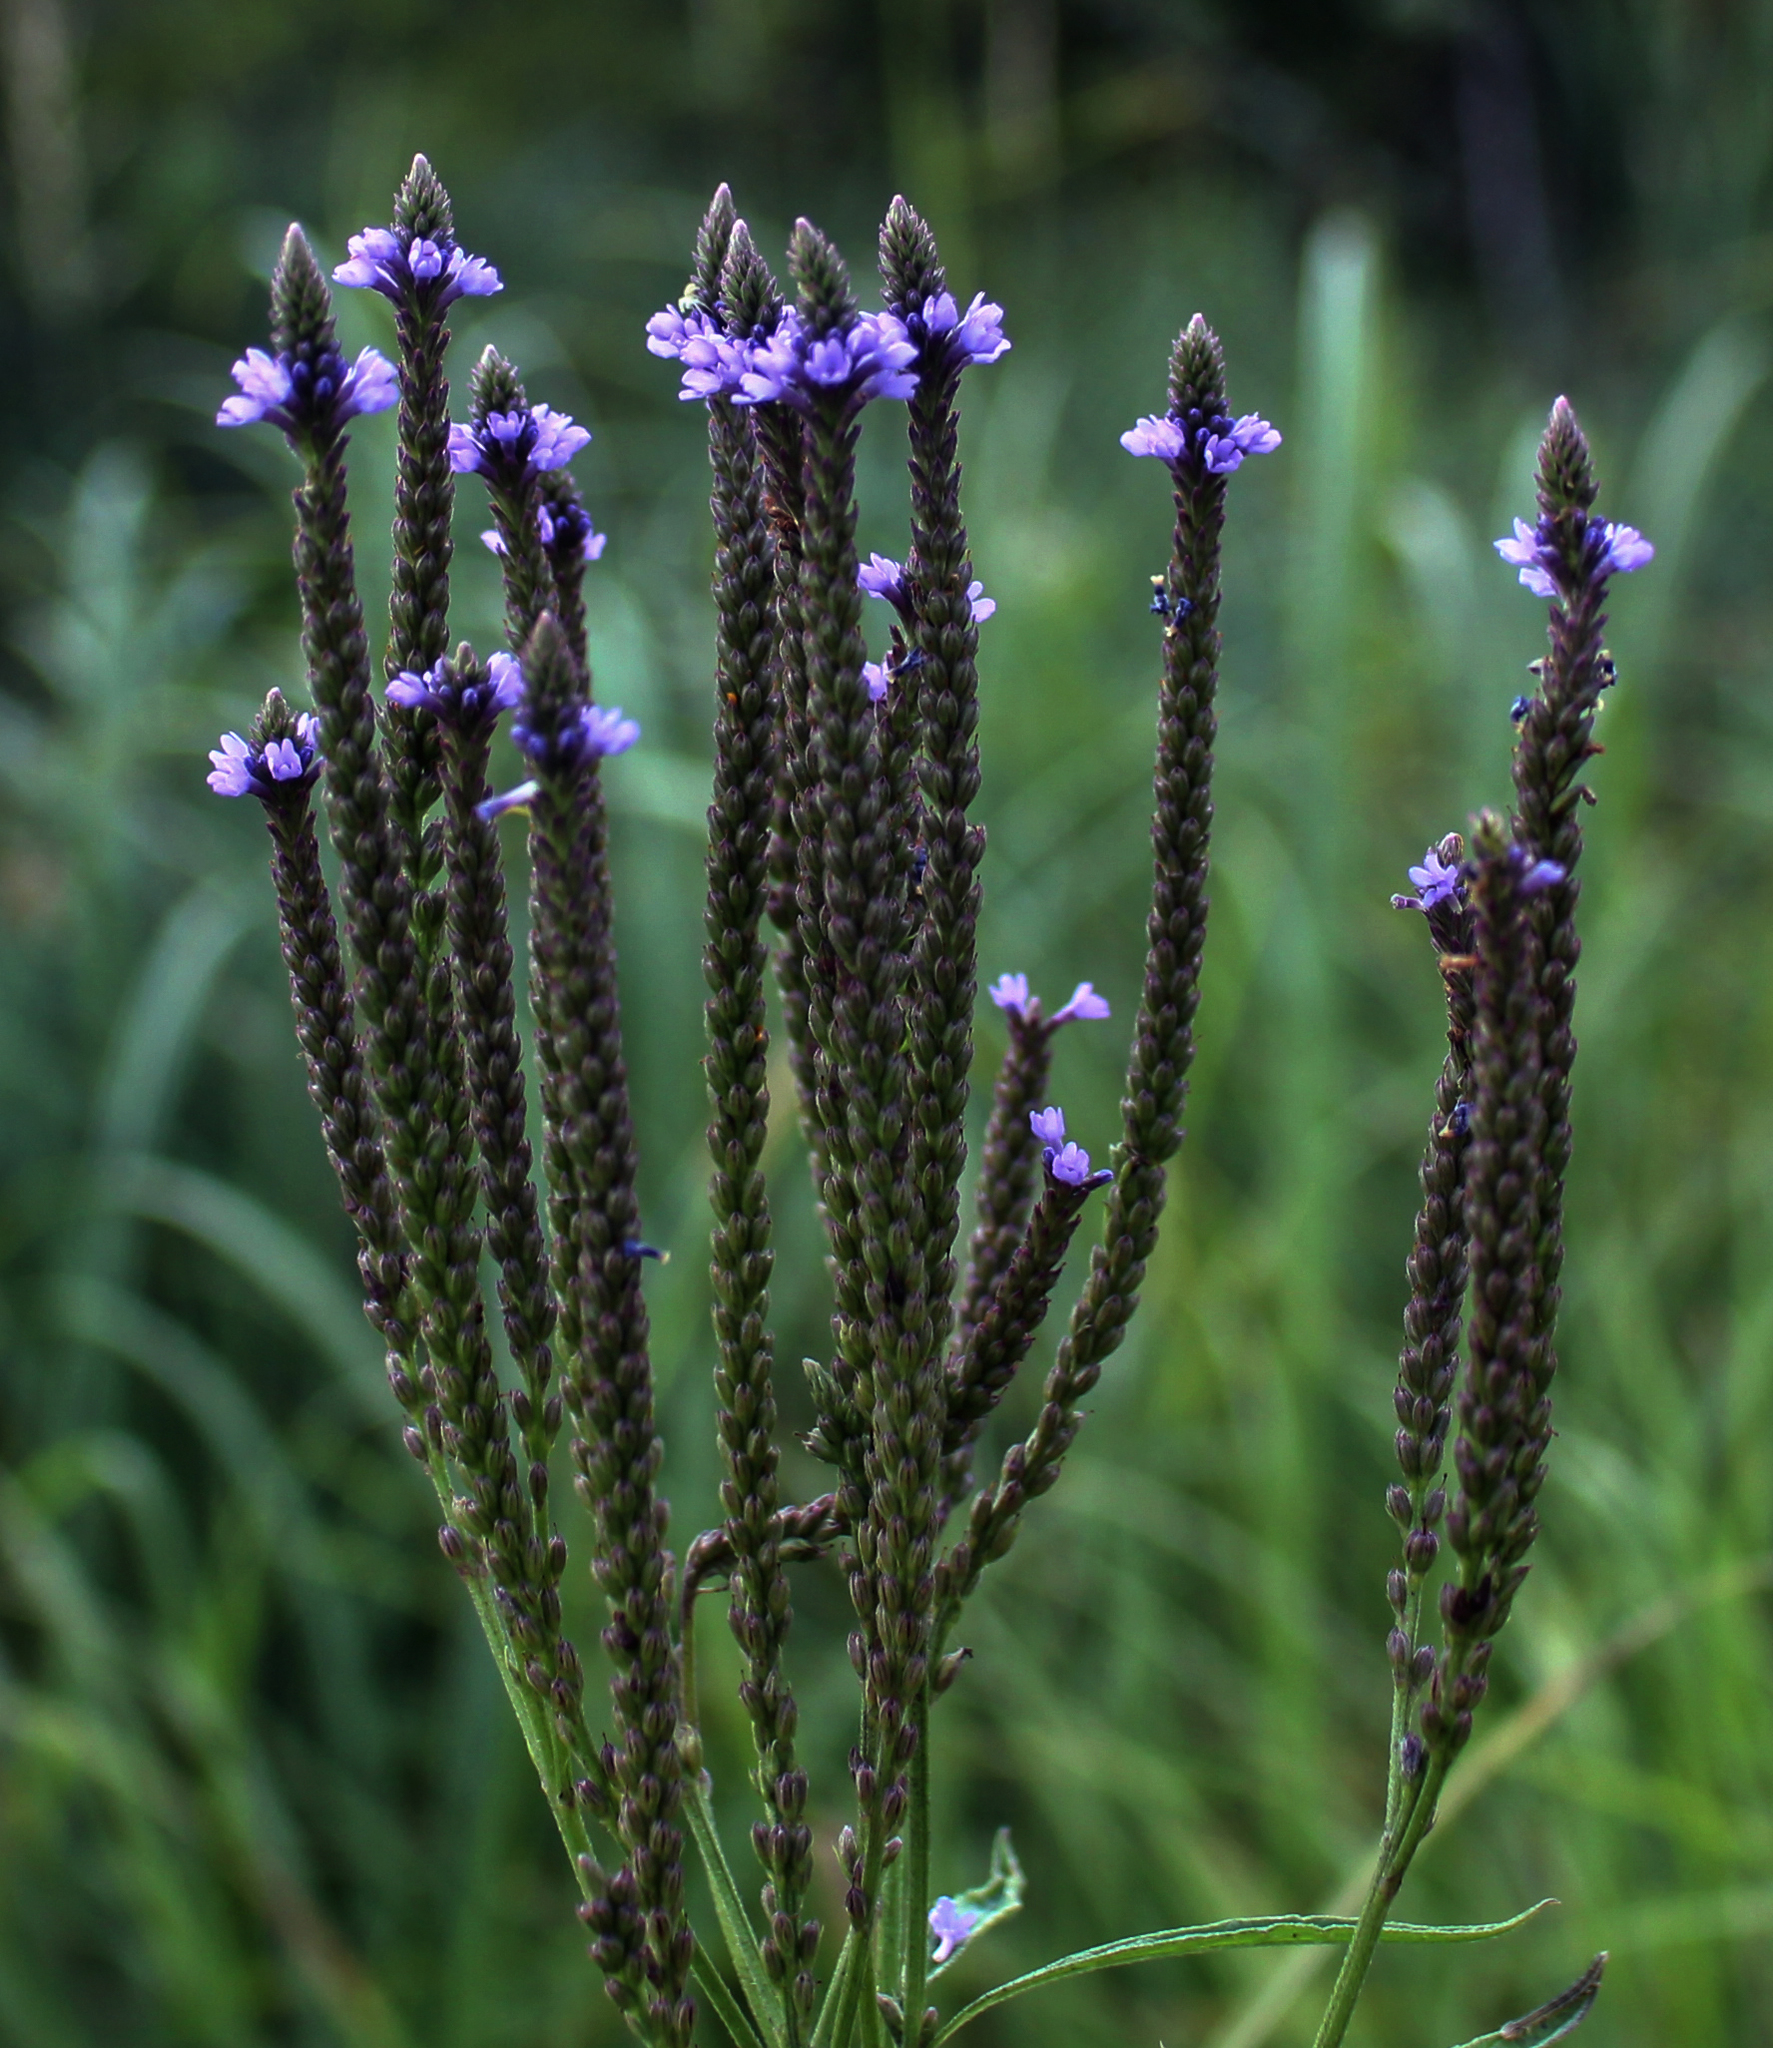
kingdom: Plantae
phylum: Tracheophyta
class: Magnoliopsida
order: Lamiales
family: Verbenaceae
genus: Verbena
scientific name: Verbena hastata
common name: American blue vervain
